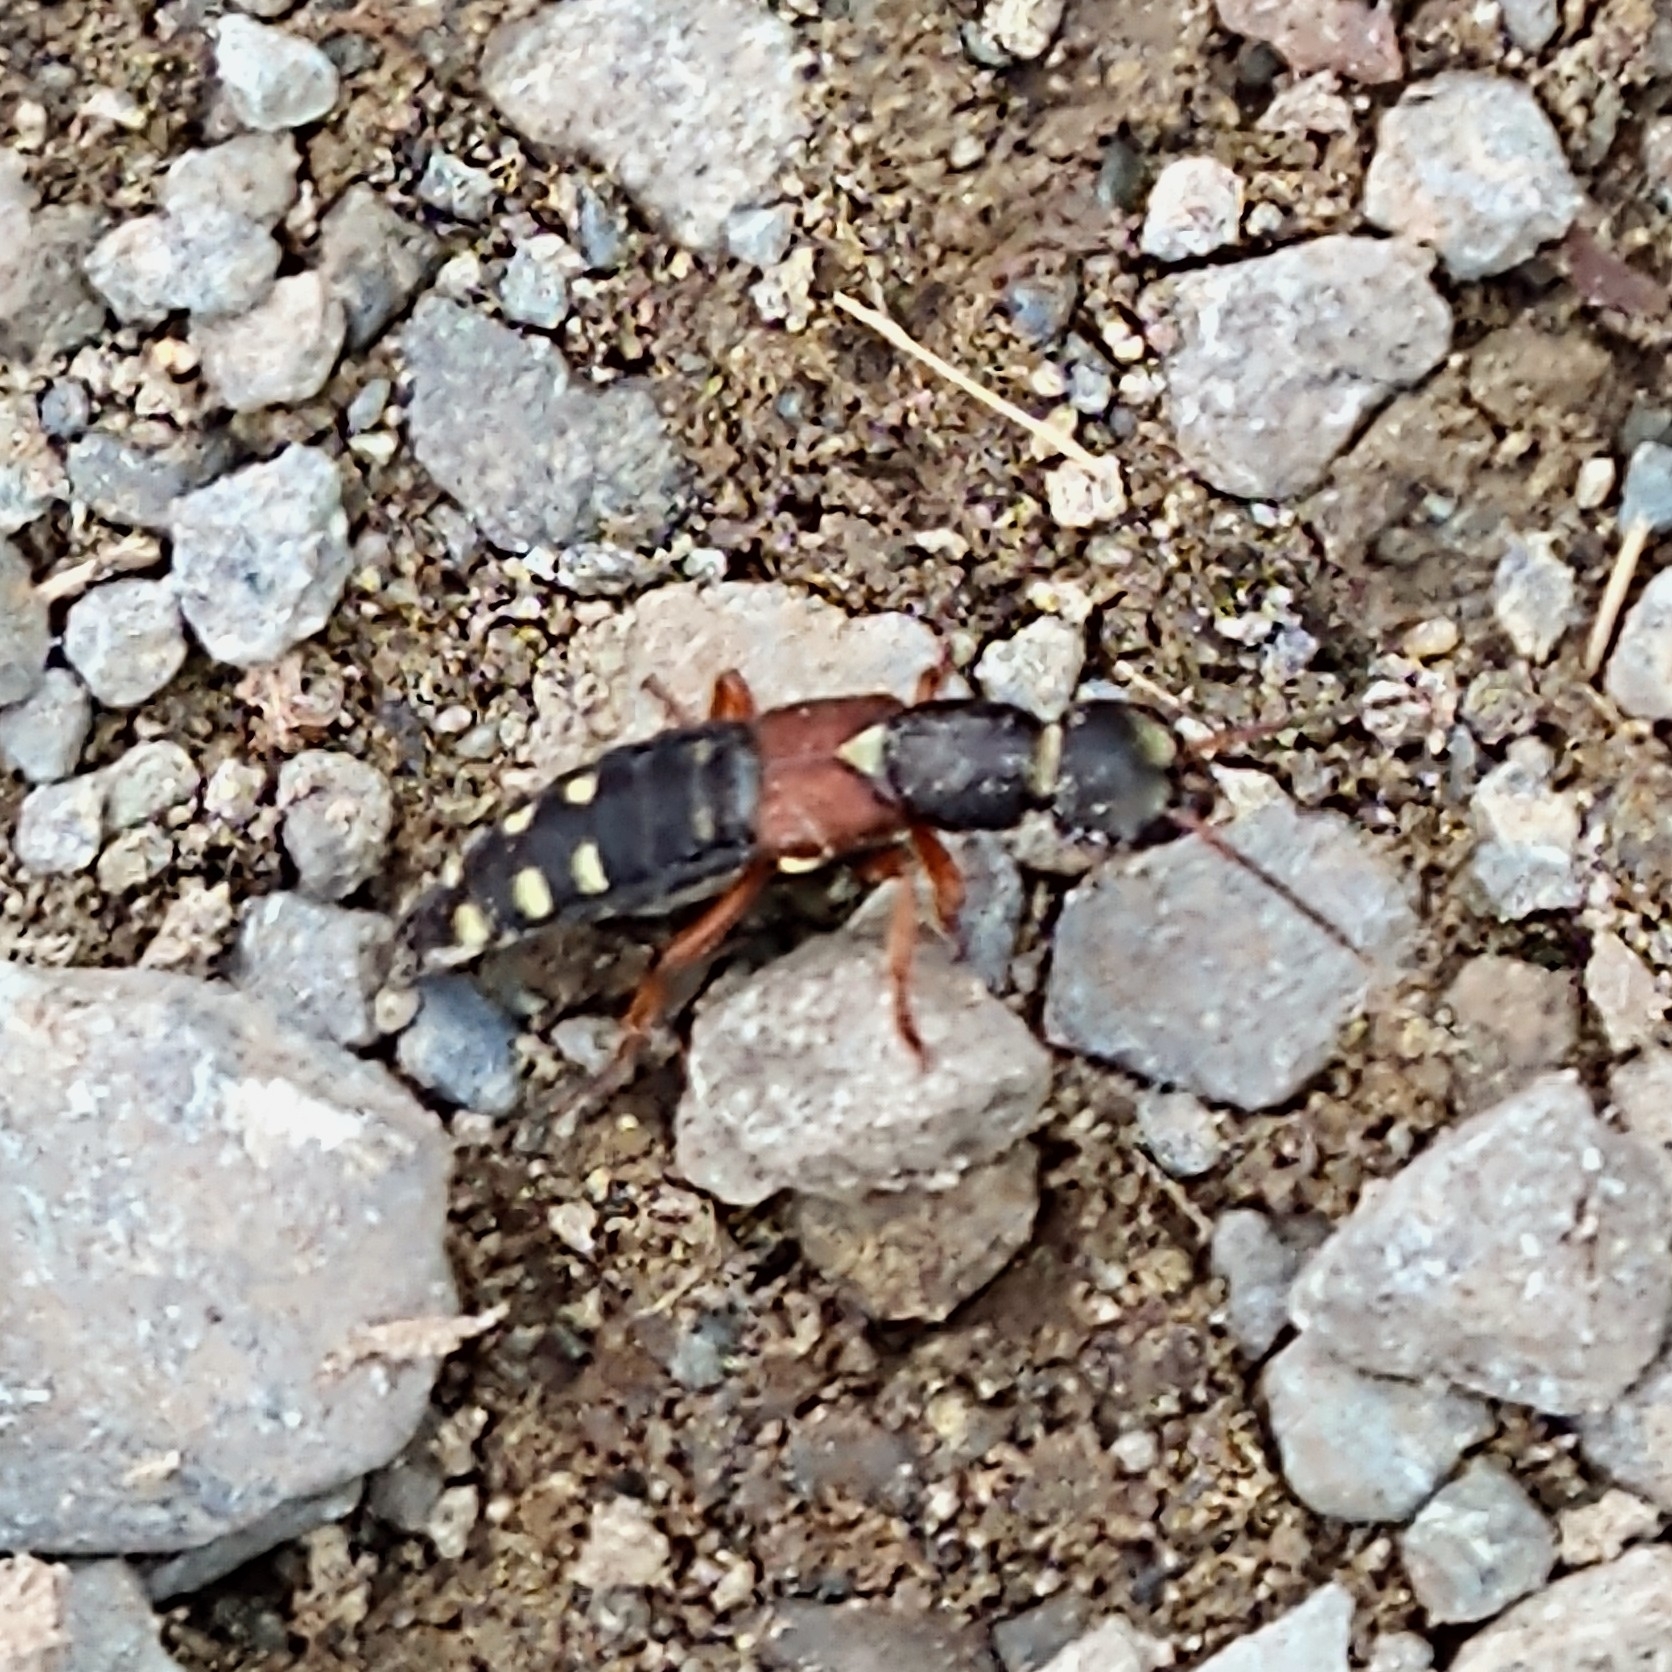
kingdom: Animalia
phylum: Arthropoda
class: Insecta
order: Coleoptera
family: Staphylinidae
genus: Staphylinus
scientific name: Staphylinus erythropterus
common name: Staph beetle
